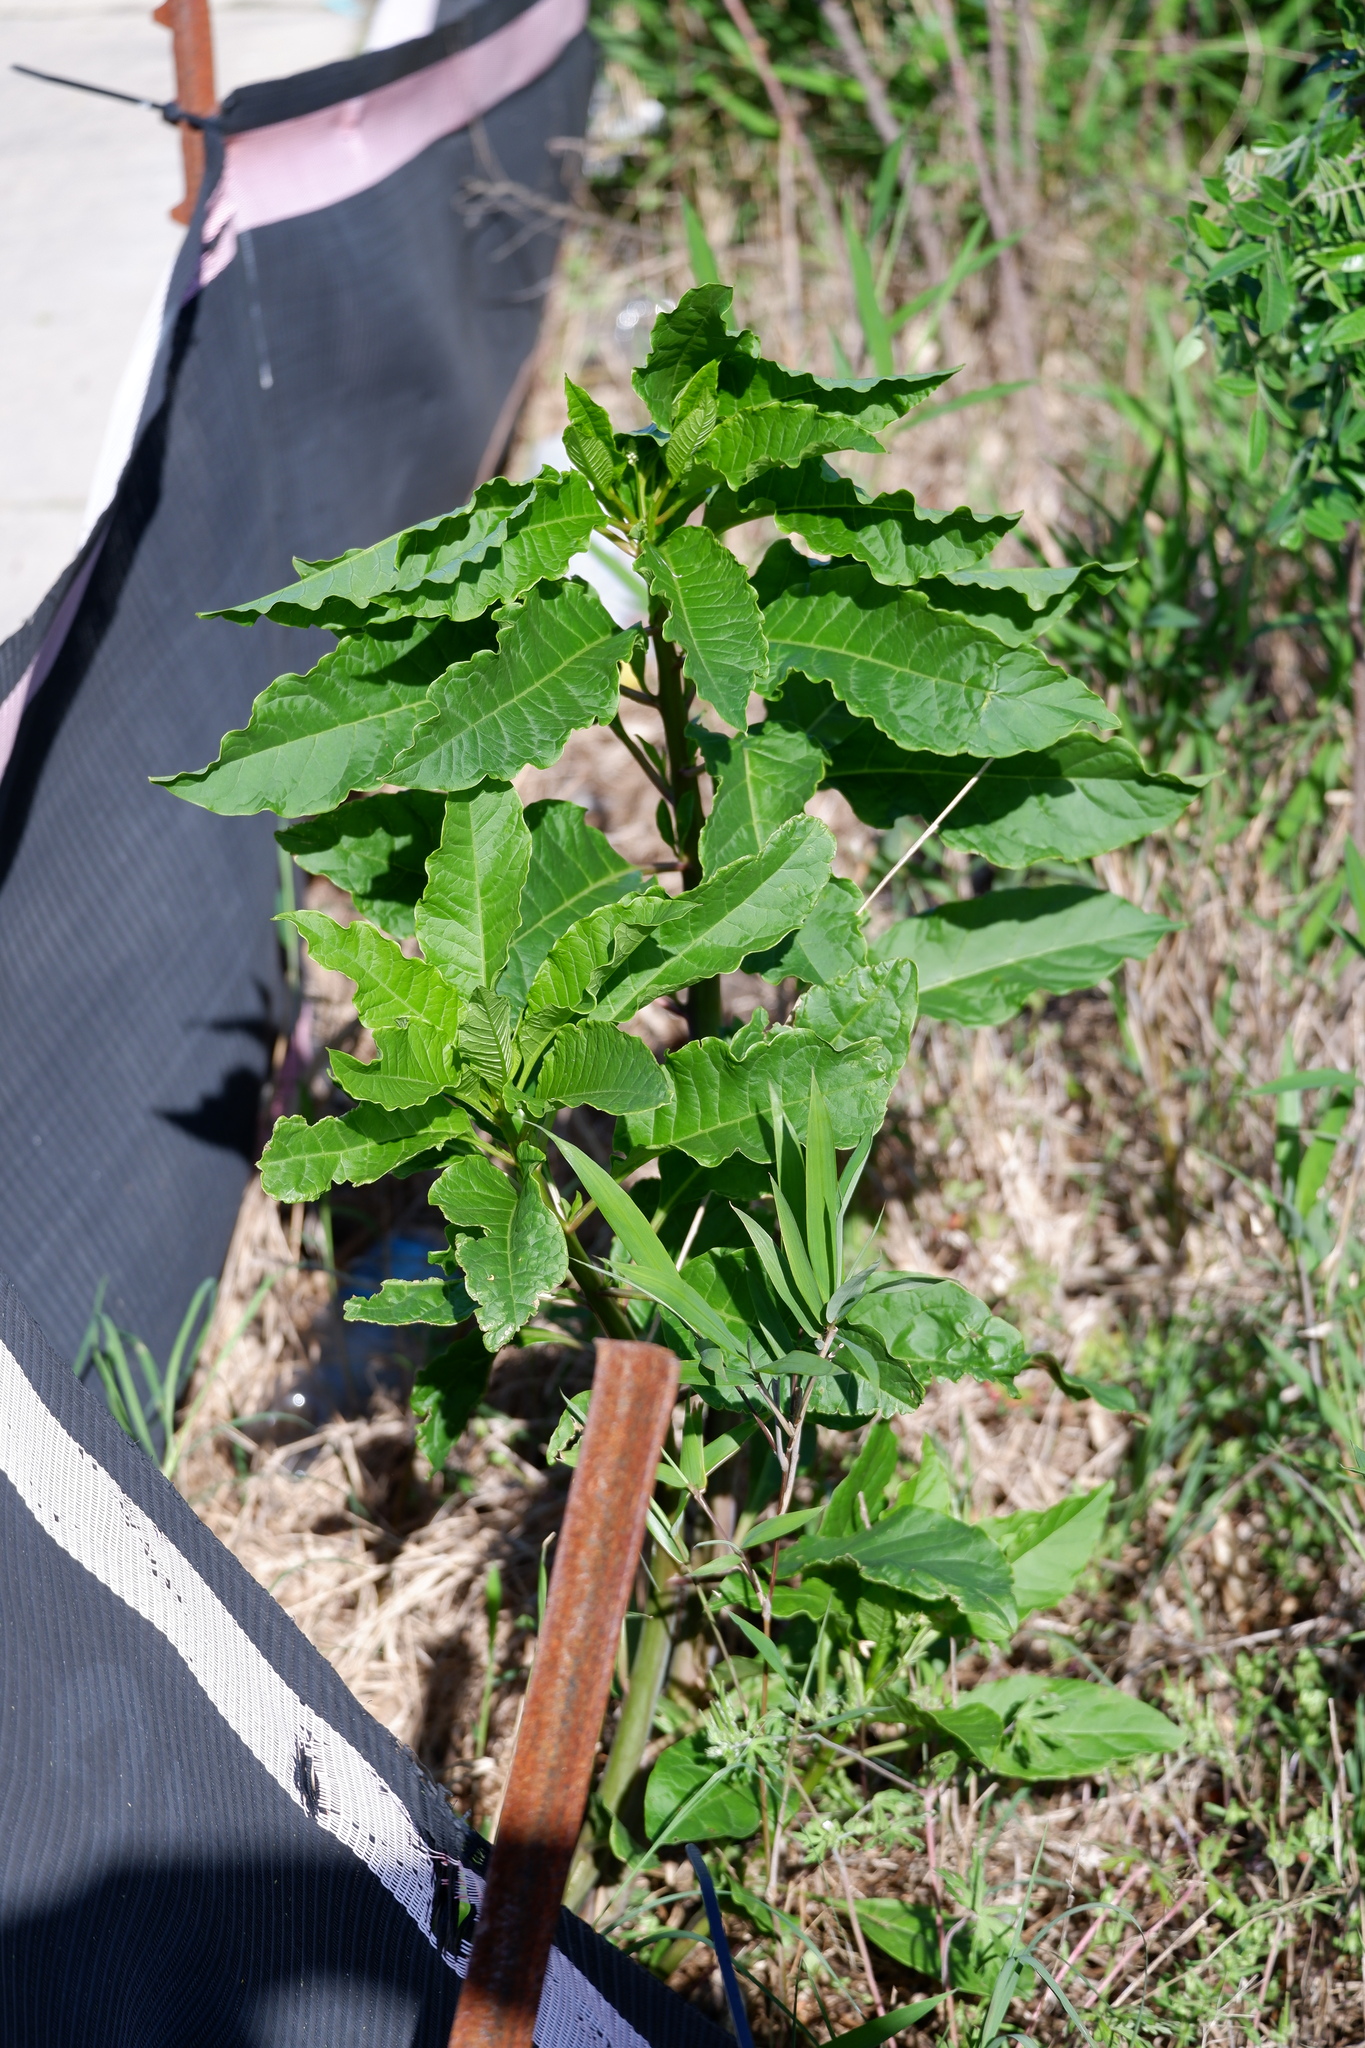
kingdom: Plantae
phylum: Tracheophyta
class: Magnoliopsida
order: Caryophyllales
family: Phytolaccaceae
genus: Phytolacca
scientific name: Phytolacca americana
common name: American pokeweed
